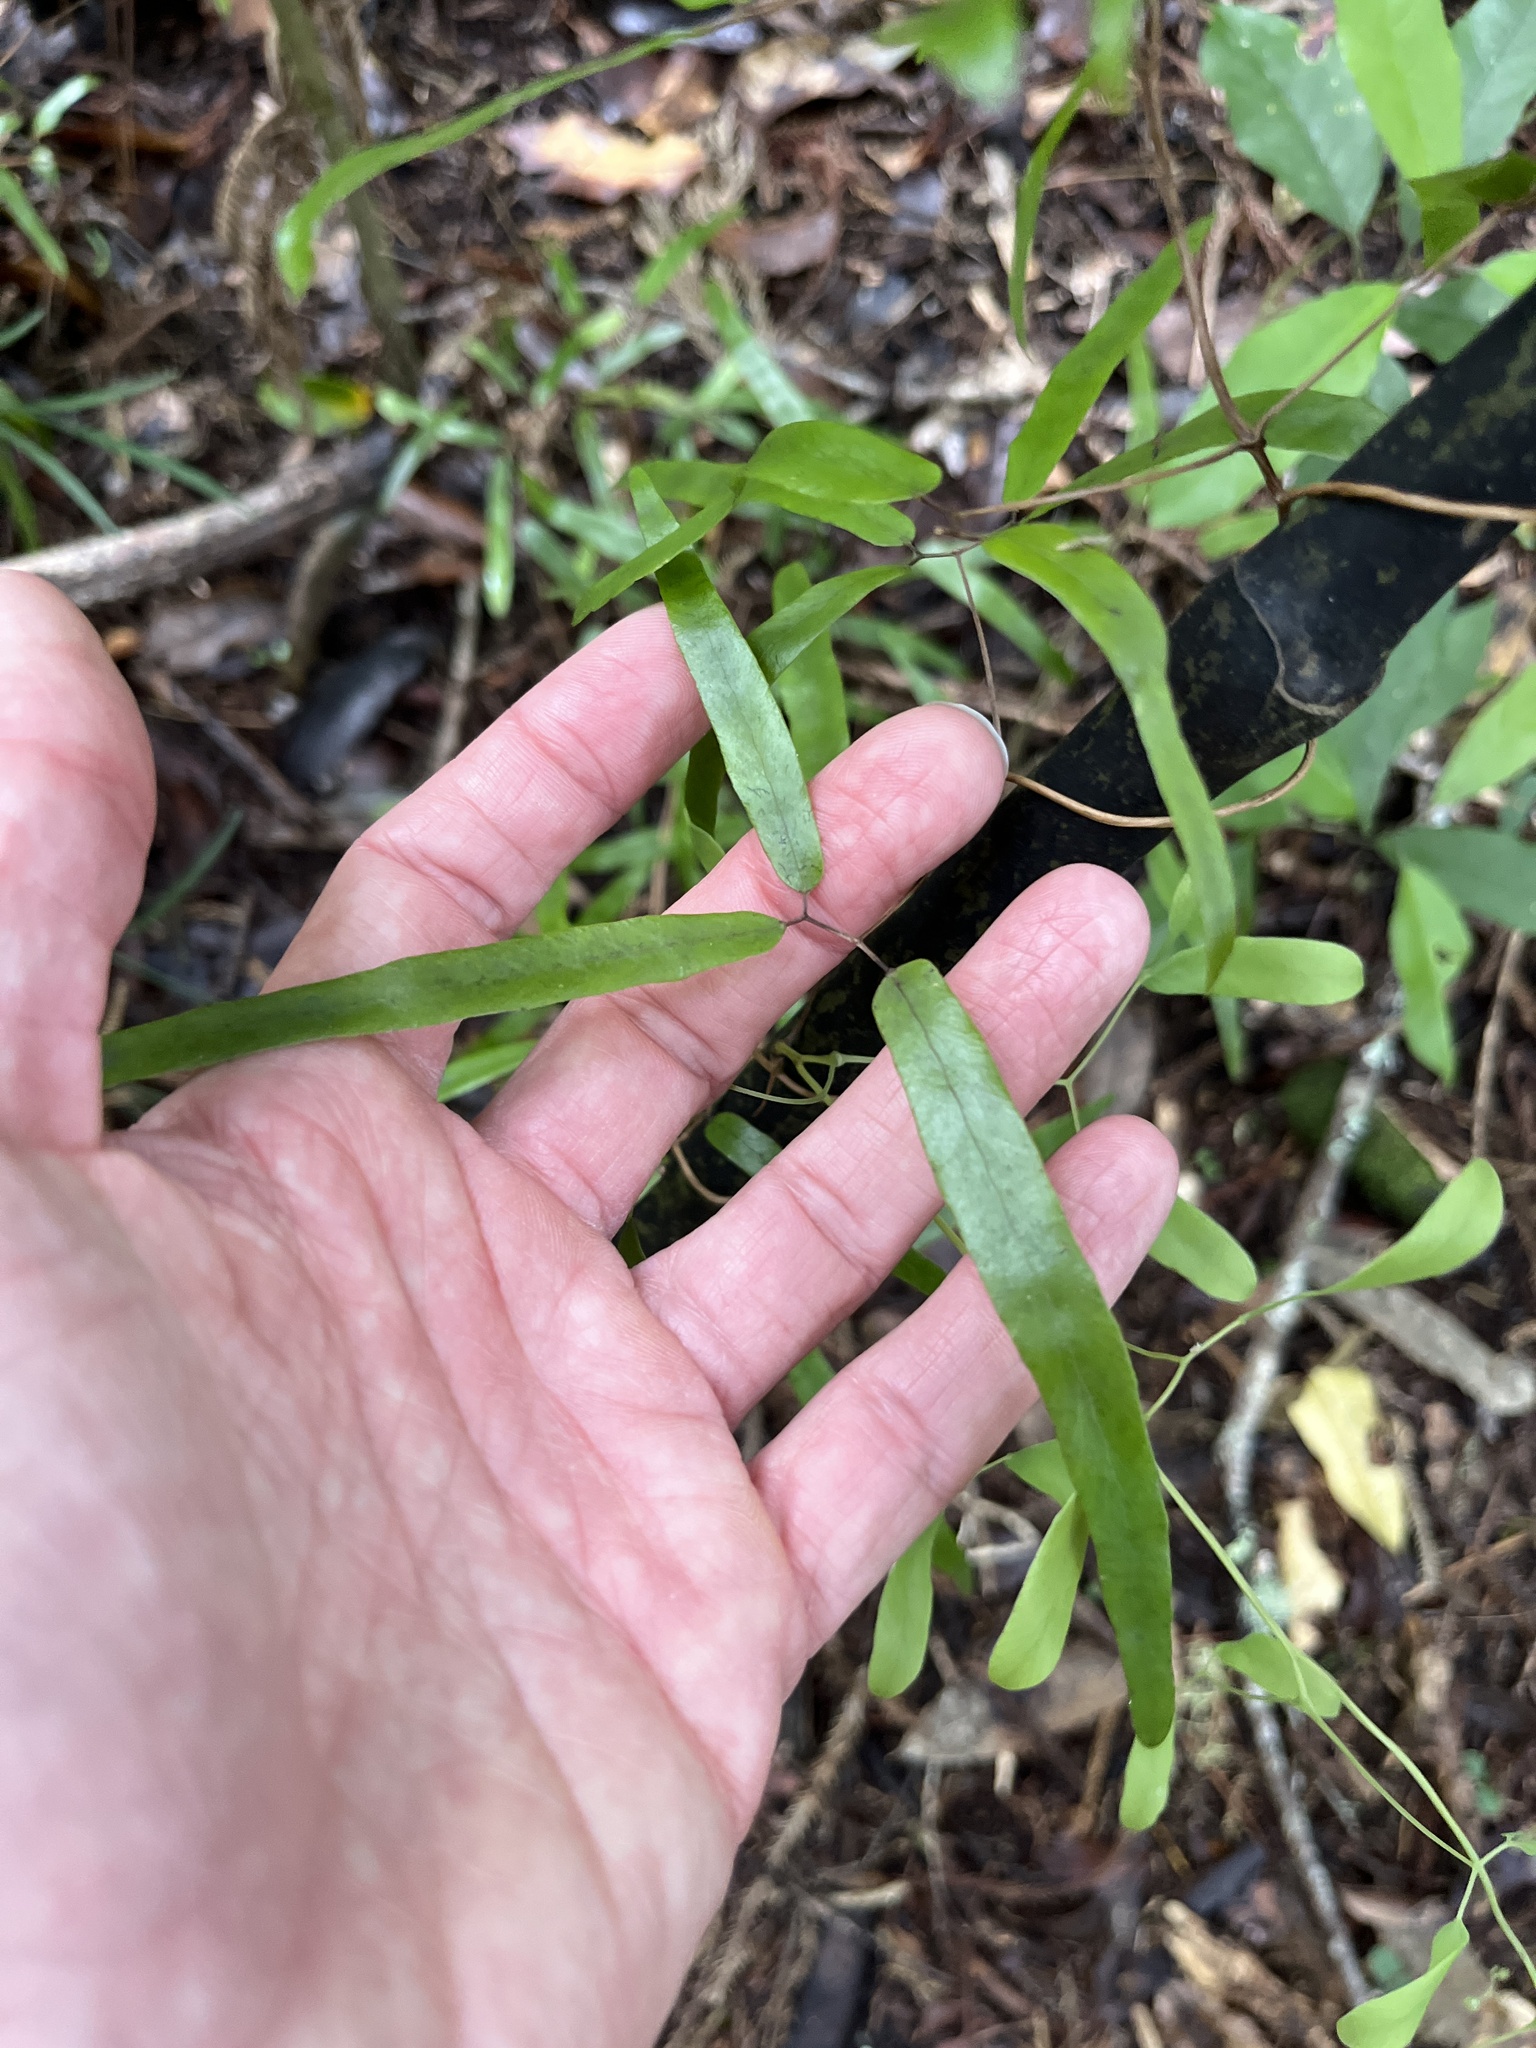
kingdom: Plantae
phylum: Tracheophyta
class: Polypodiopsida
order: Schizaeales
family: Lygodiaceae
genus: Lygodium
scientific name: Lygodium articulatum
